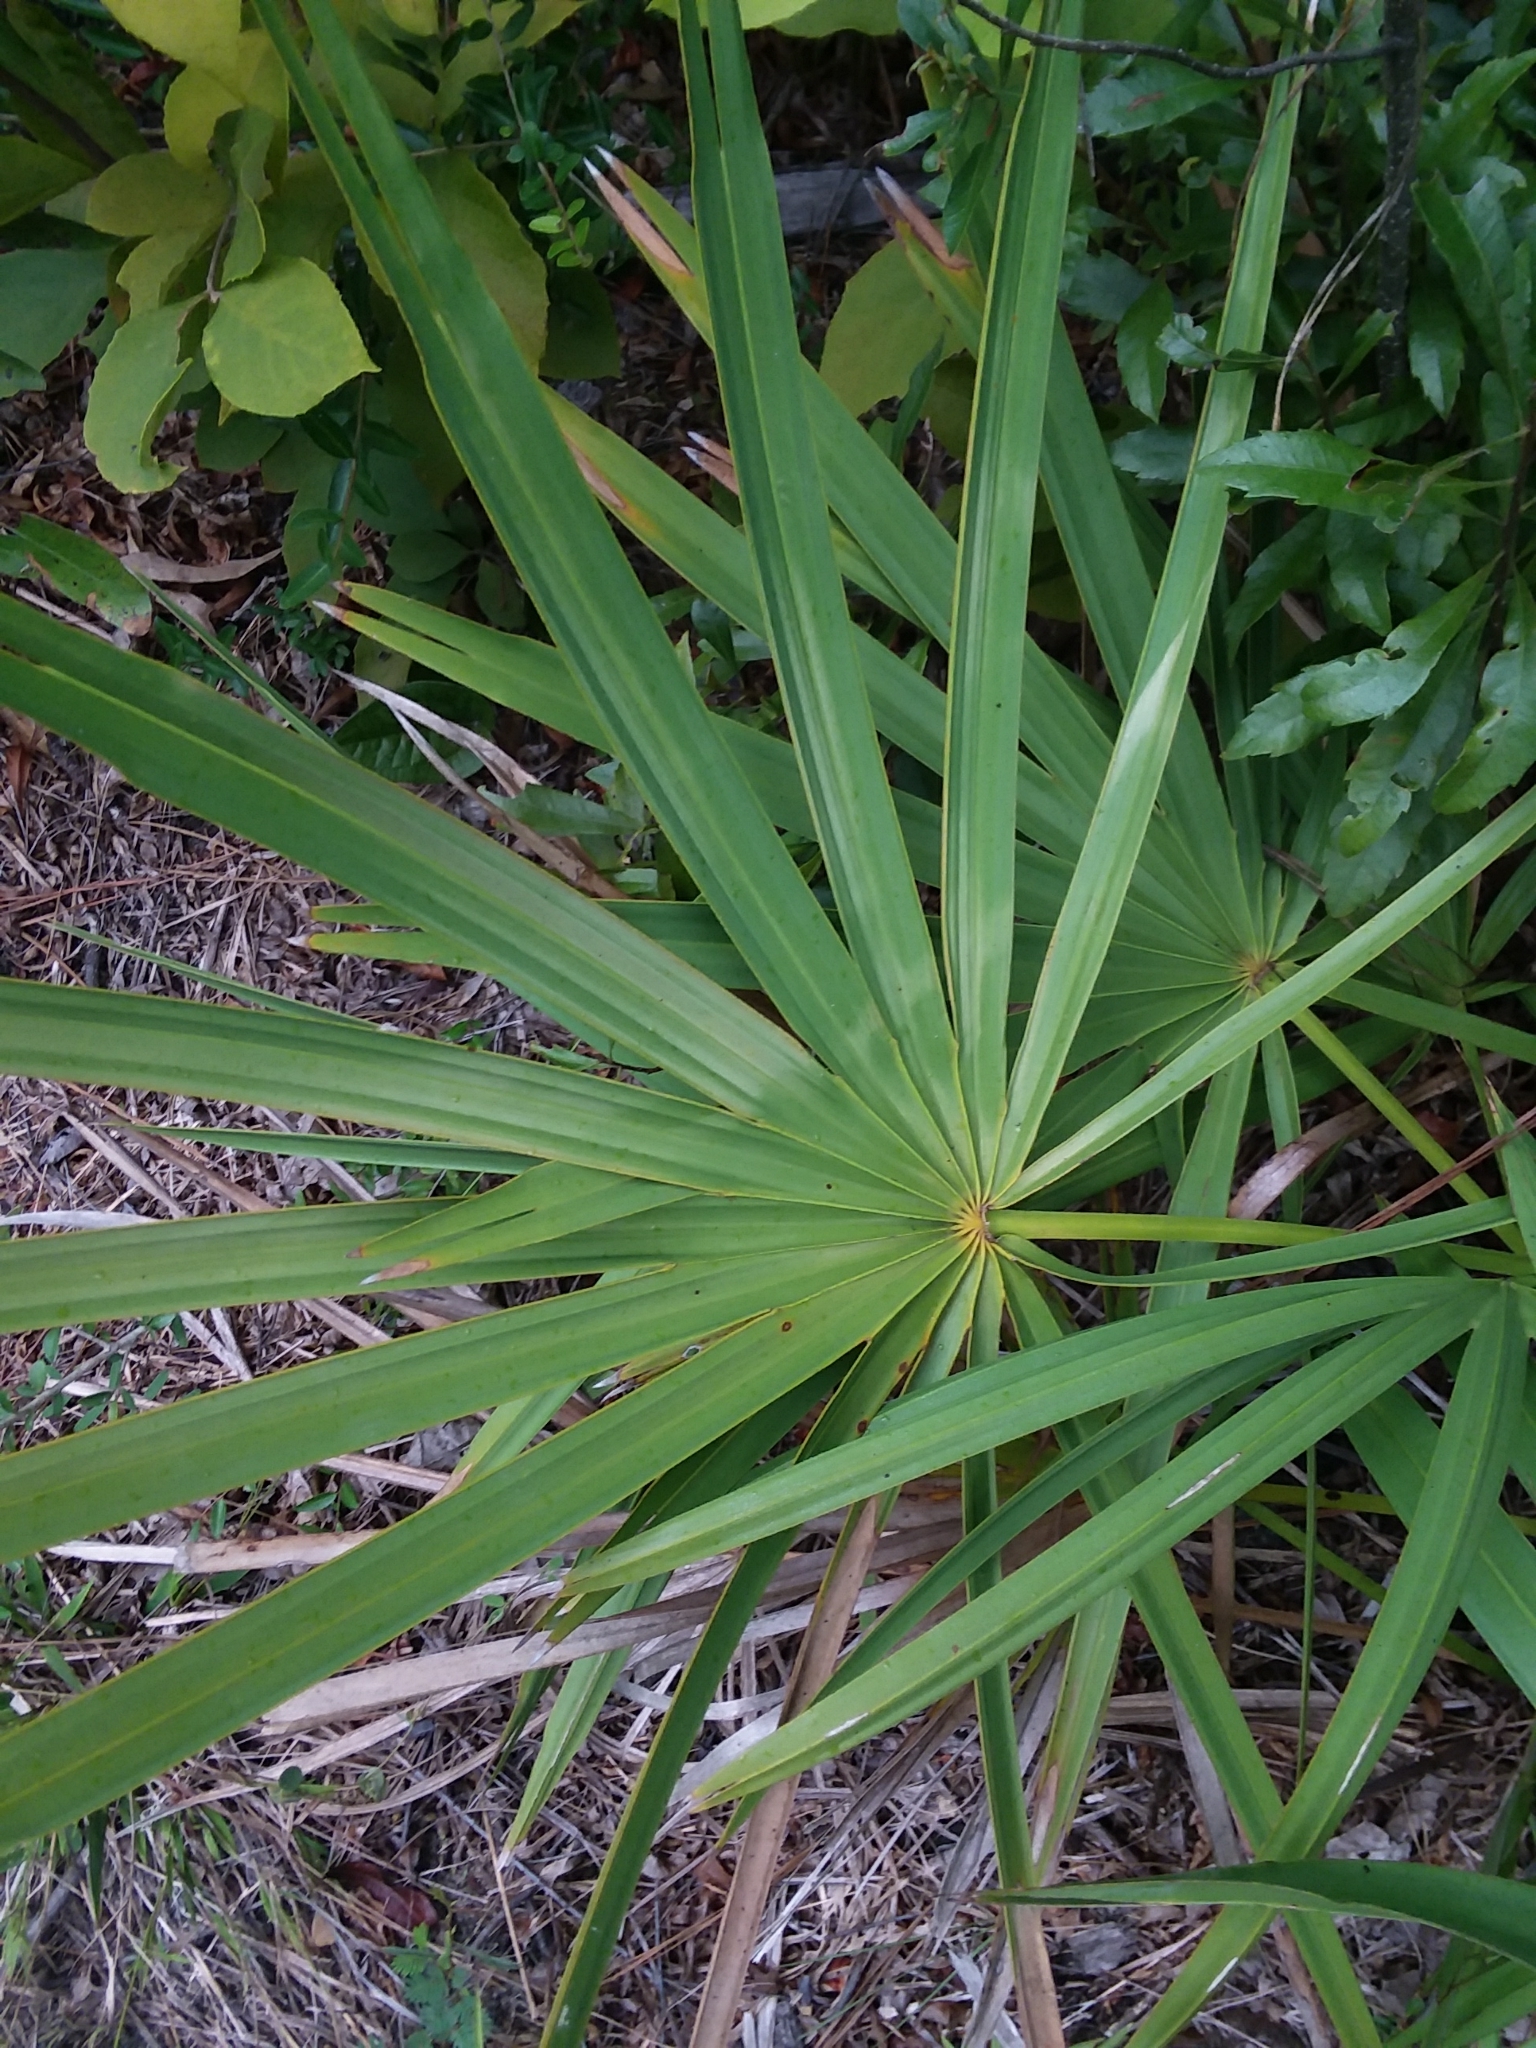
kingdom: Plantae
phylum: Tracheophyta
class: Liliopsida
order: Arecales
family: Arecaceae
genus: Serenoa
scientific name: Serenoa repens
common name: Saw-palmetto
